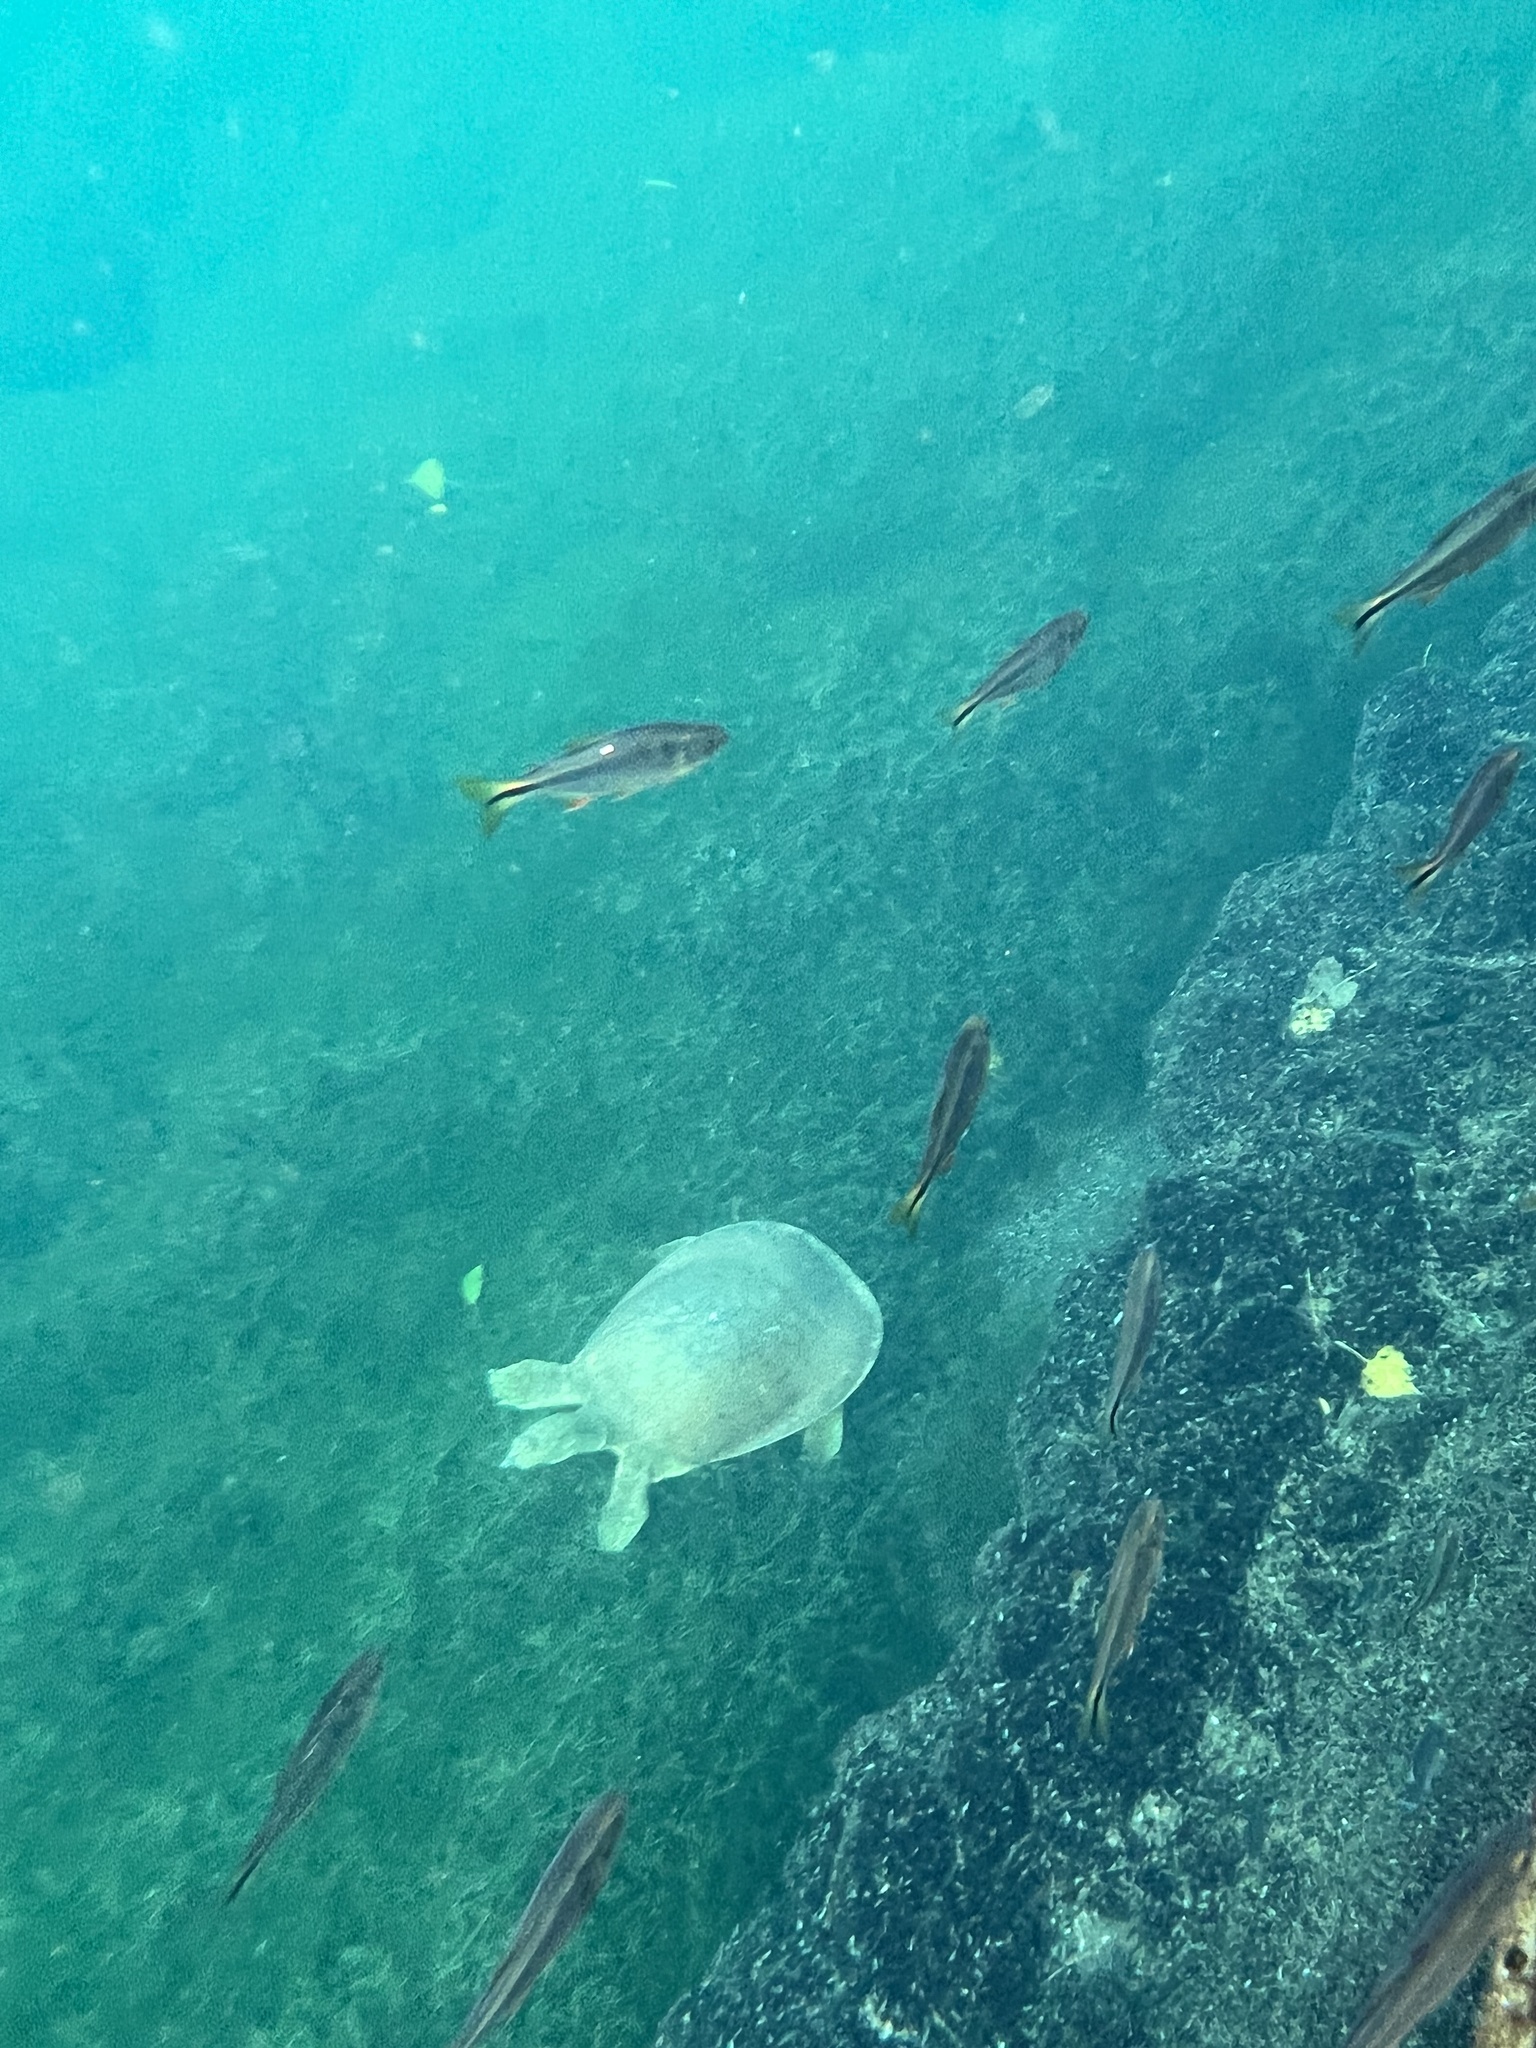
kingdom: Animalia
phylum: Chordata
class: Testudines
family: Trionychidae
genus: Apalone
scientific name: Apalone spinifera
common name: Spiny softshell turtle
